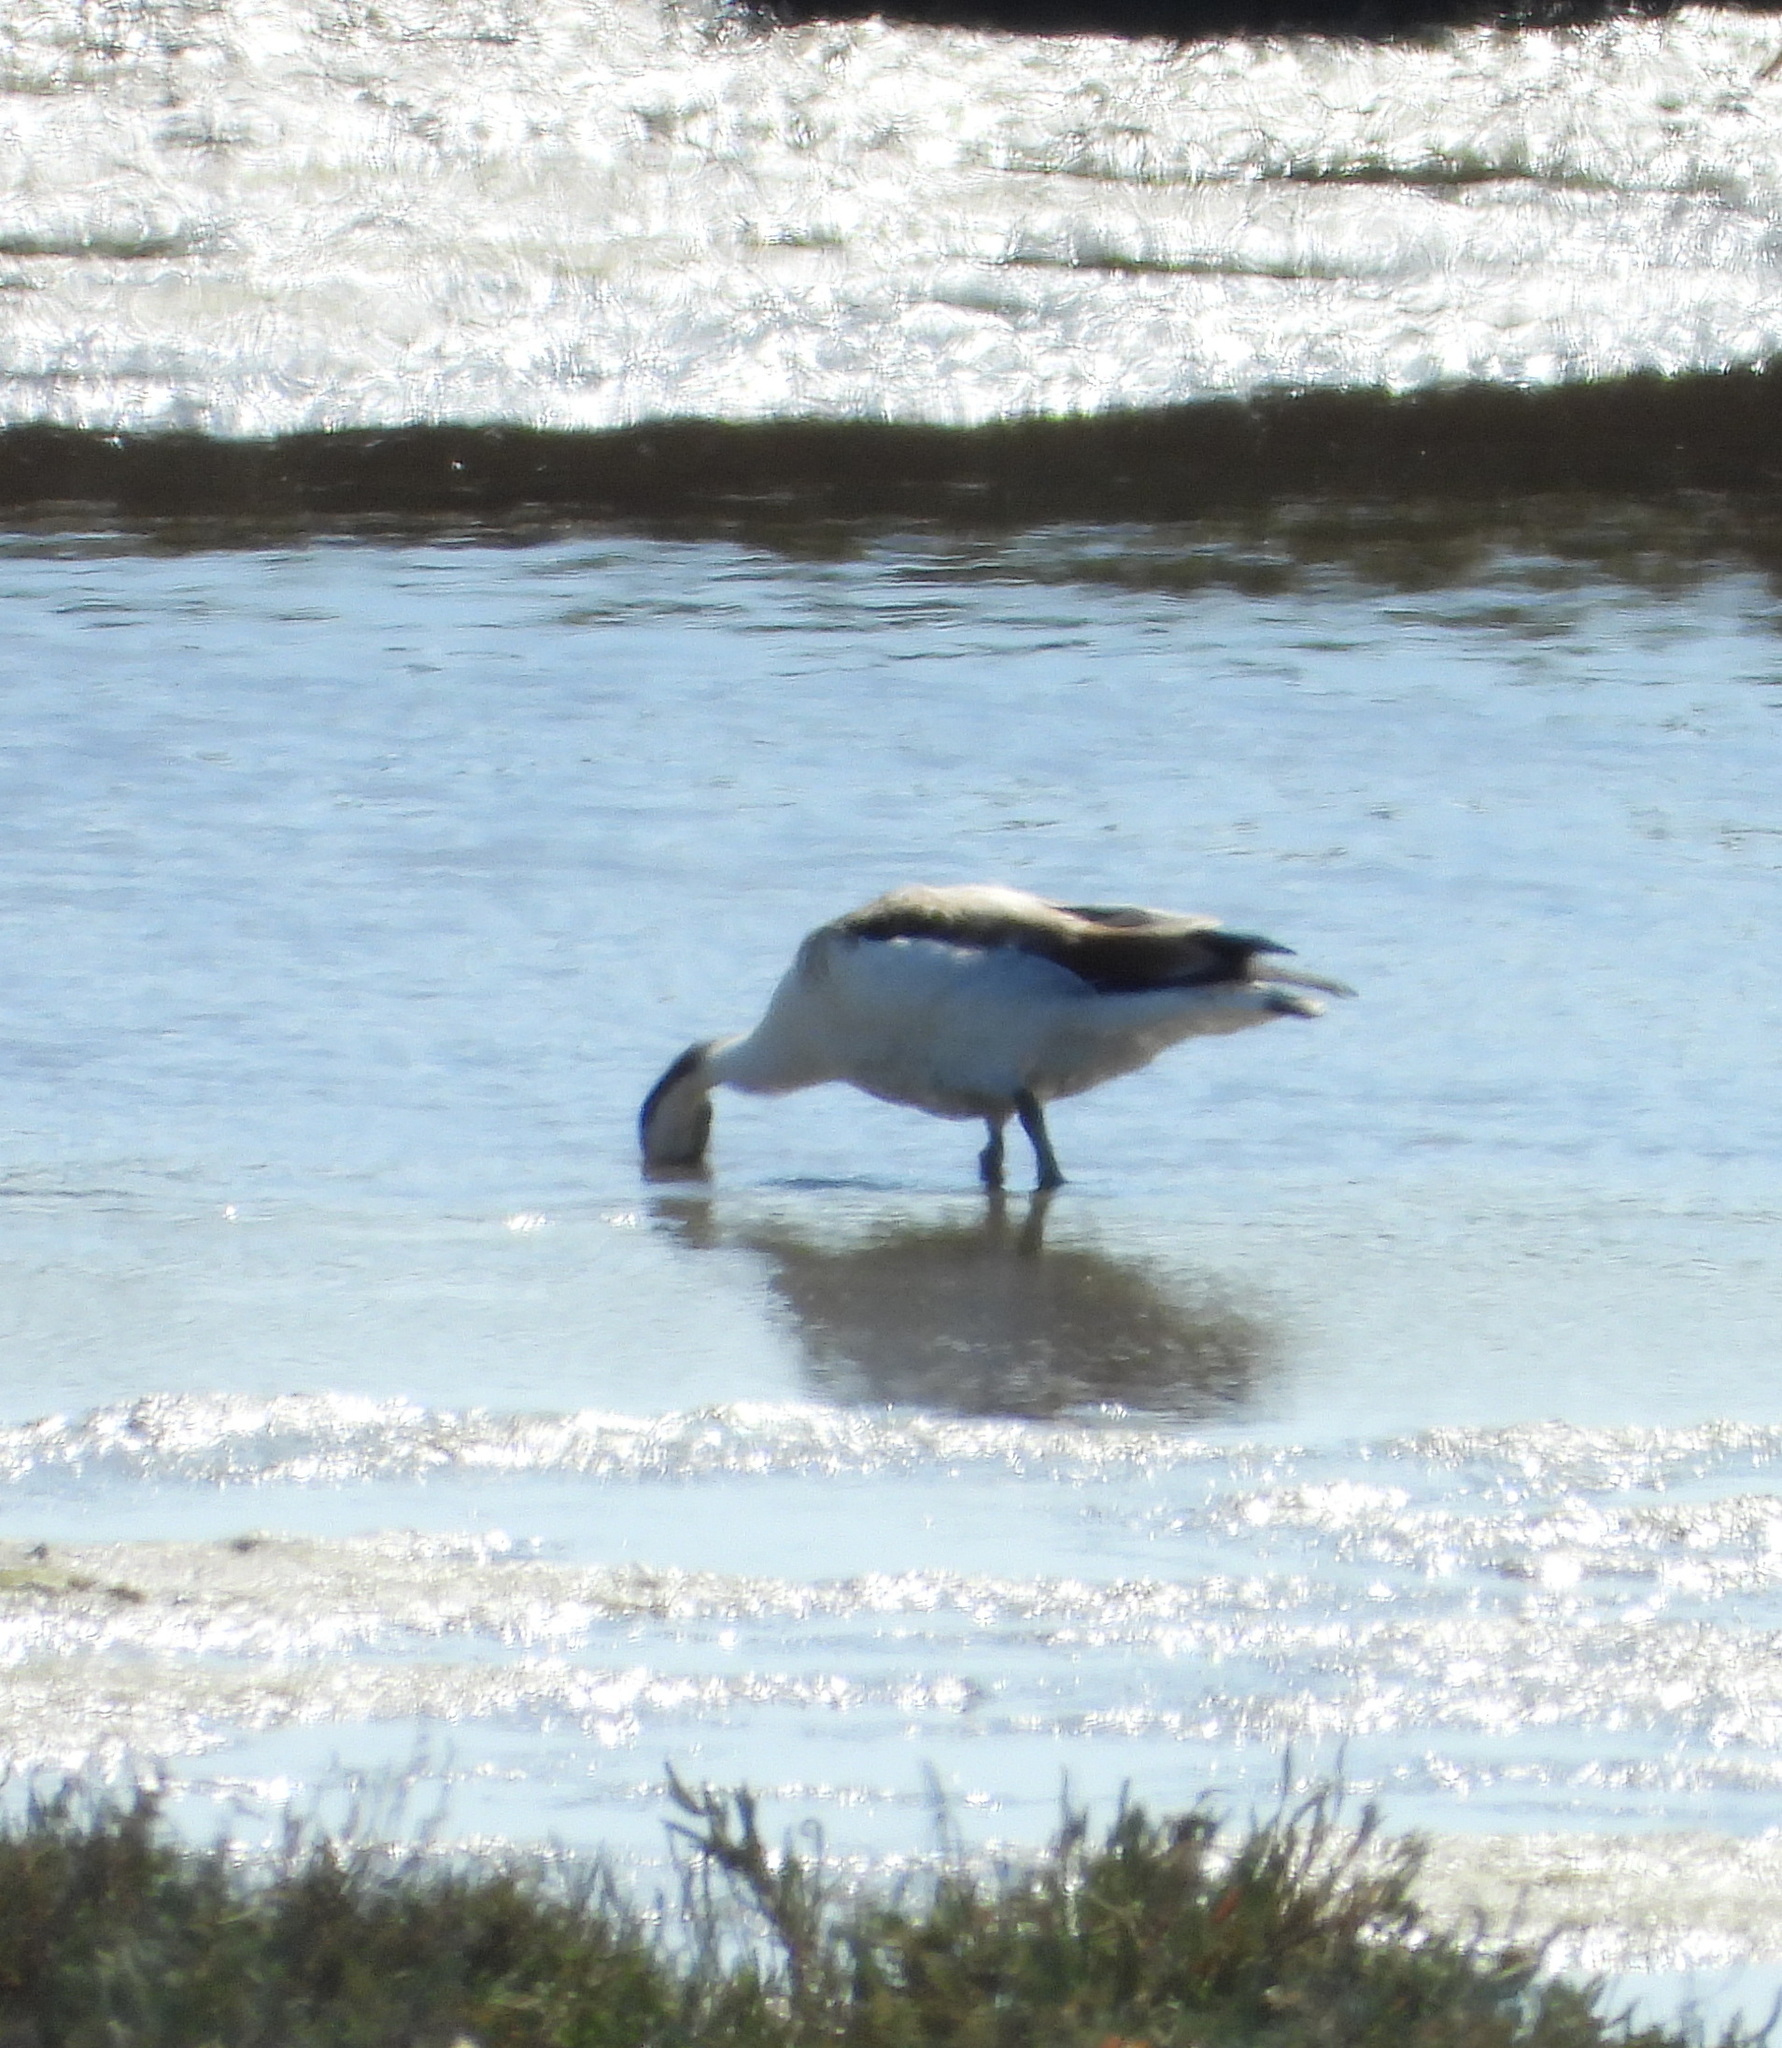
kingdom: Animalia
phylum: Chordata
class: Aves
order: Anseriformes
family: Anatidae
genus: Tadorna
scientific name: Tadorna tadorna
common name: Common shelduck
